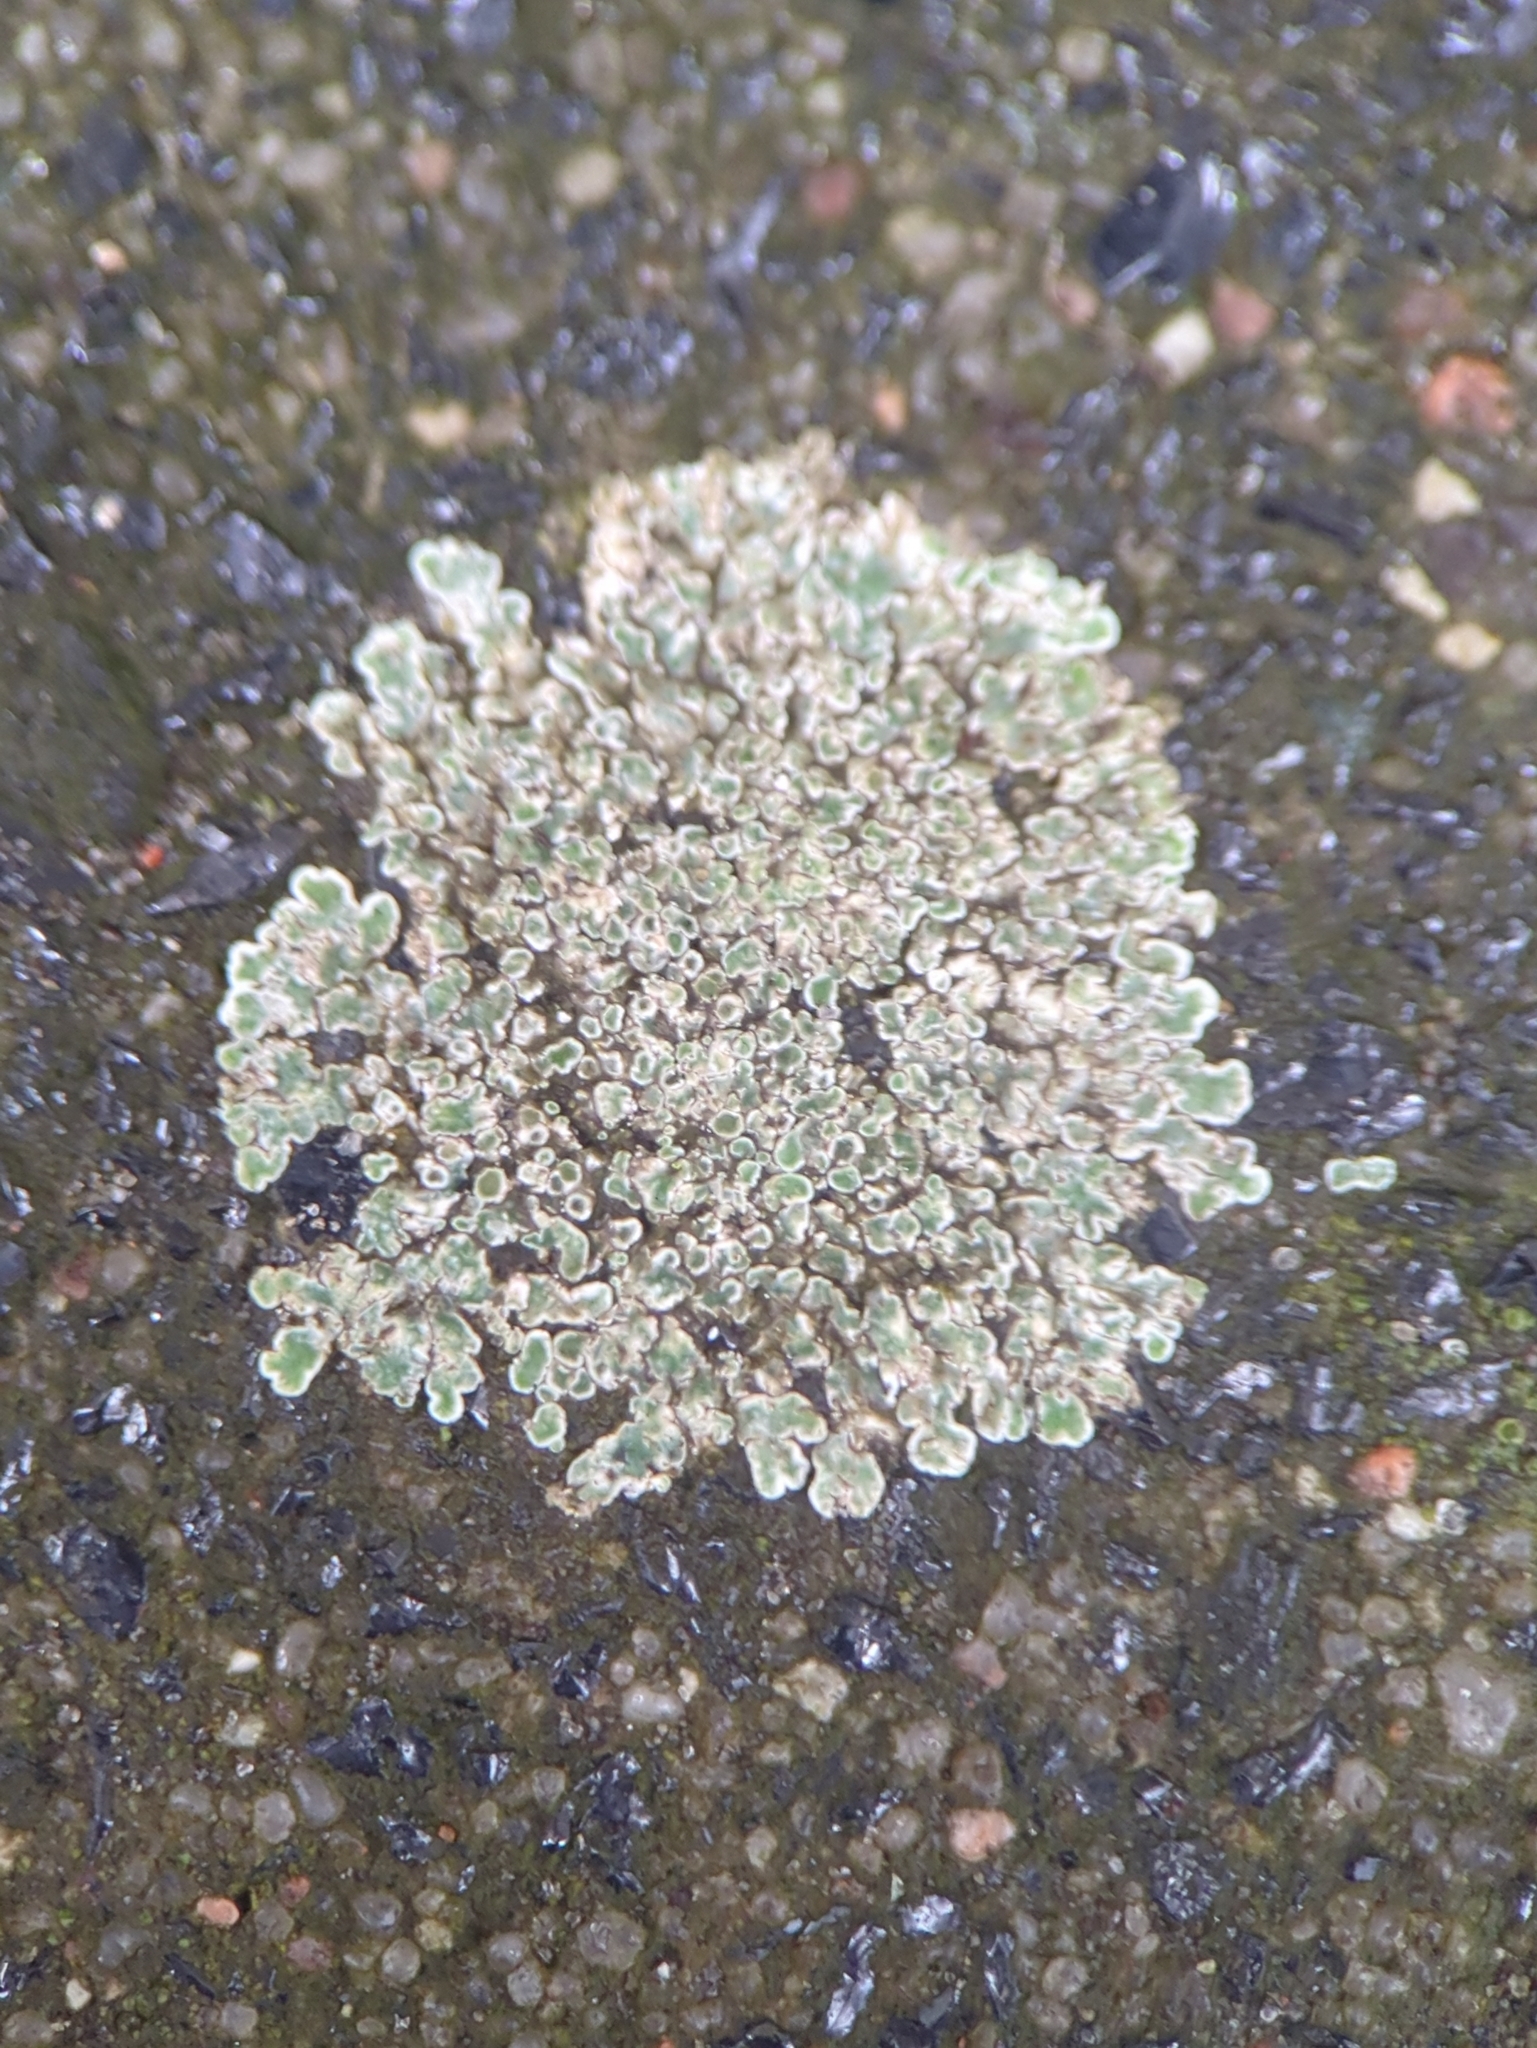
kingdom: Fungi
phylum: Ascomycota
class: Lecanoromycetes
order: Lecanorales
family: Lecanoraceae
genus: Protoparmeliopsis
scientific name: Protoparmeliopsis muralis
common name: Stonewall rim lichen
